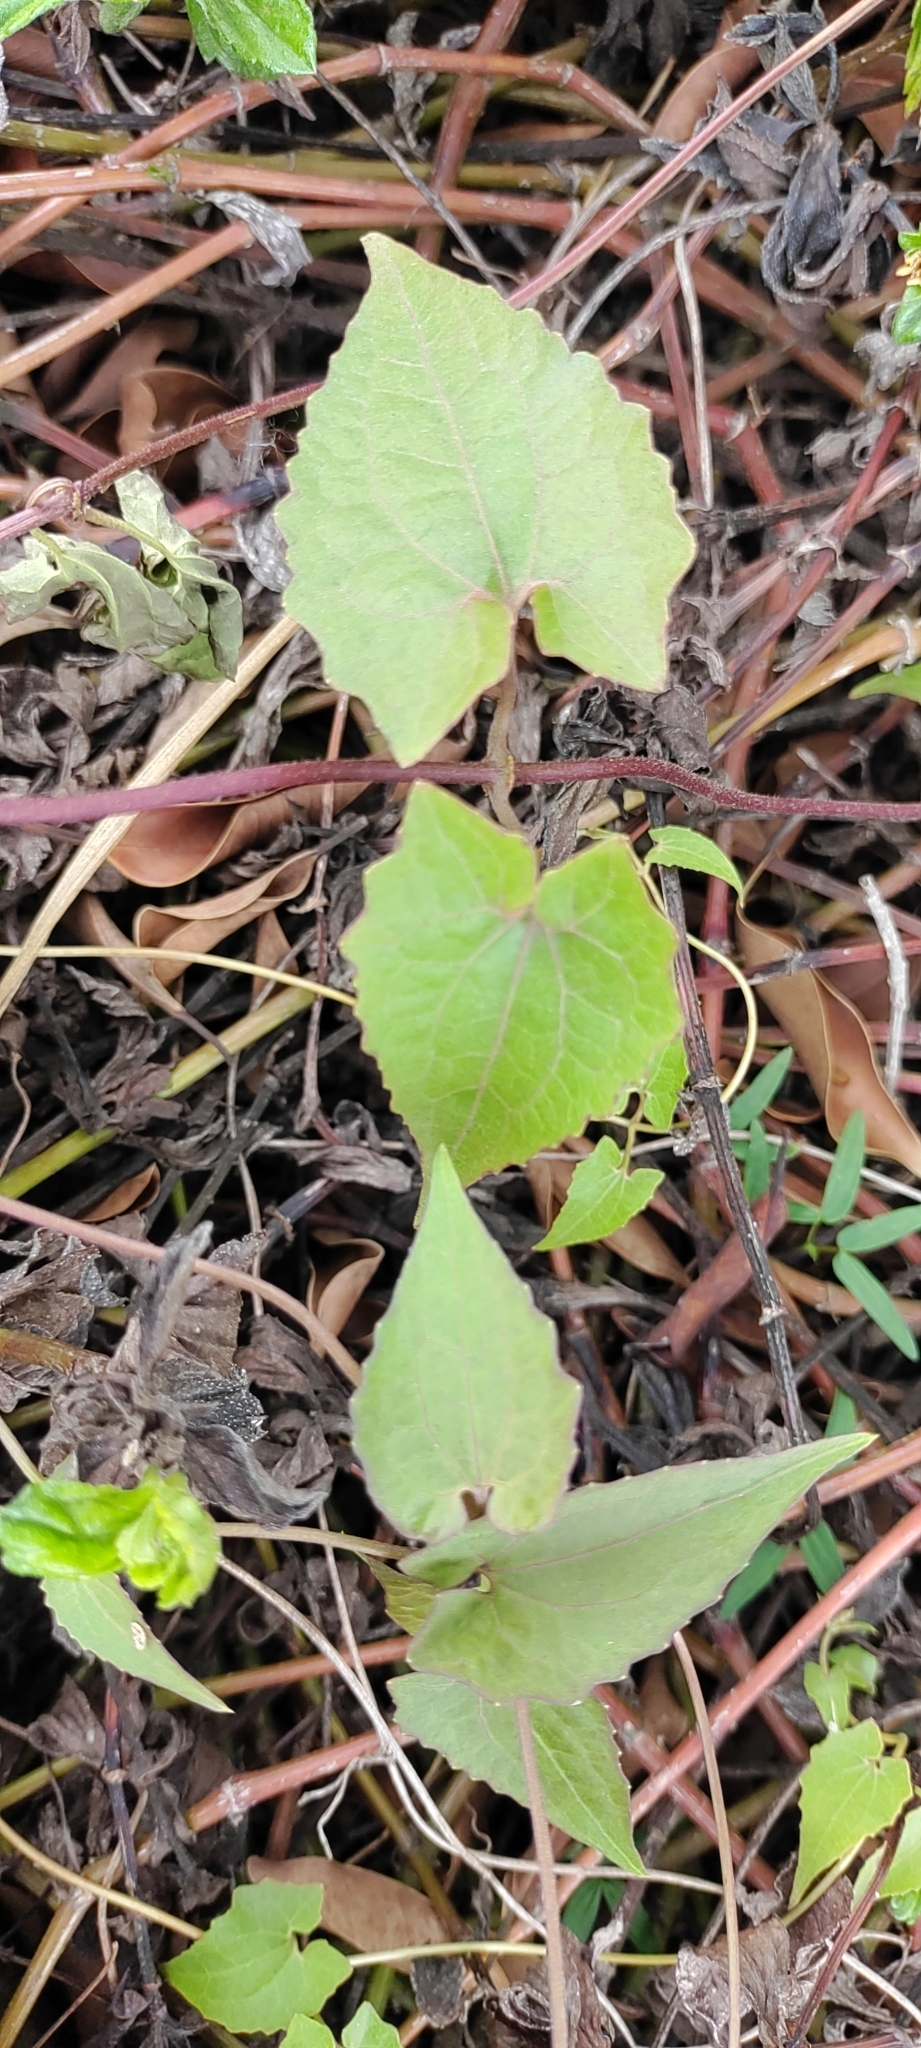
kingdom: Plantae
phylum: Tracheophyta
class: Magnoliopsida
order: Asterales
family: Asteraceae
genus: Mikania
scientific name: Mikania micrantha
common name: Mile-a-minute
